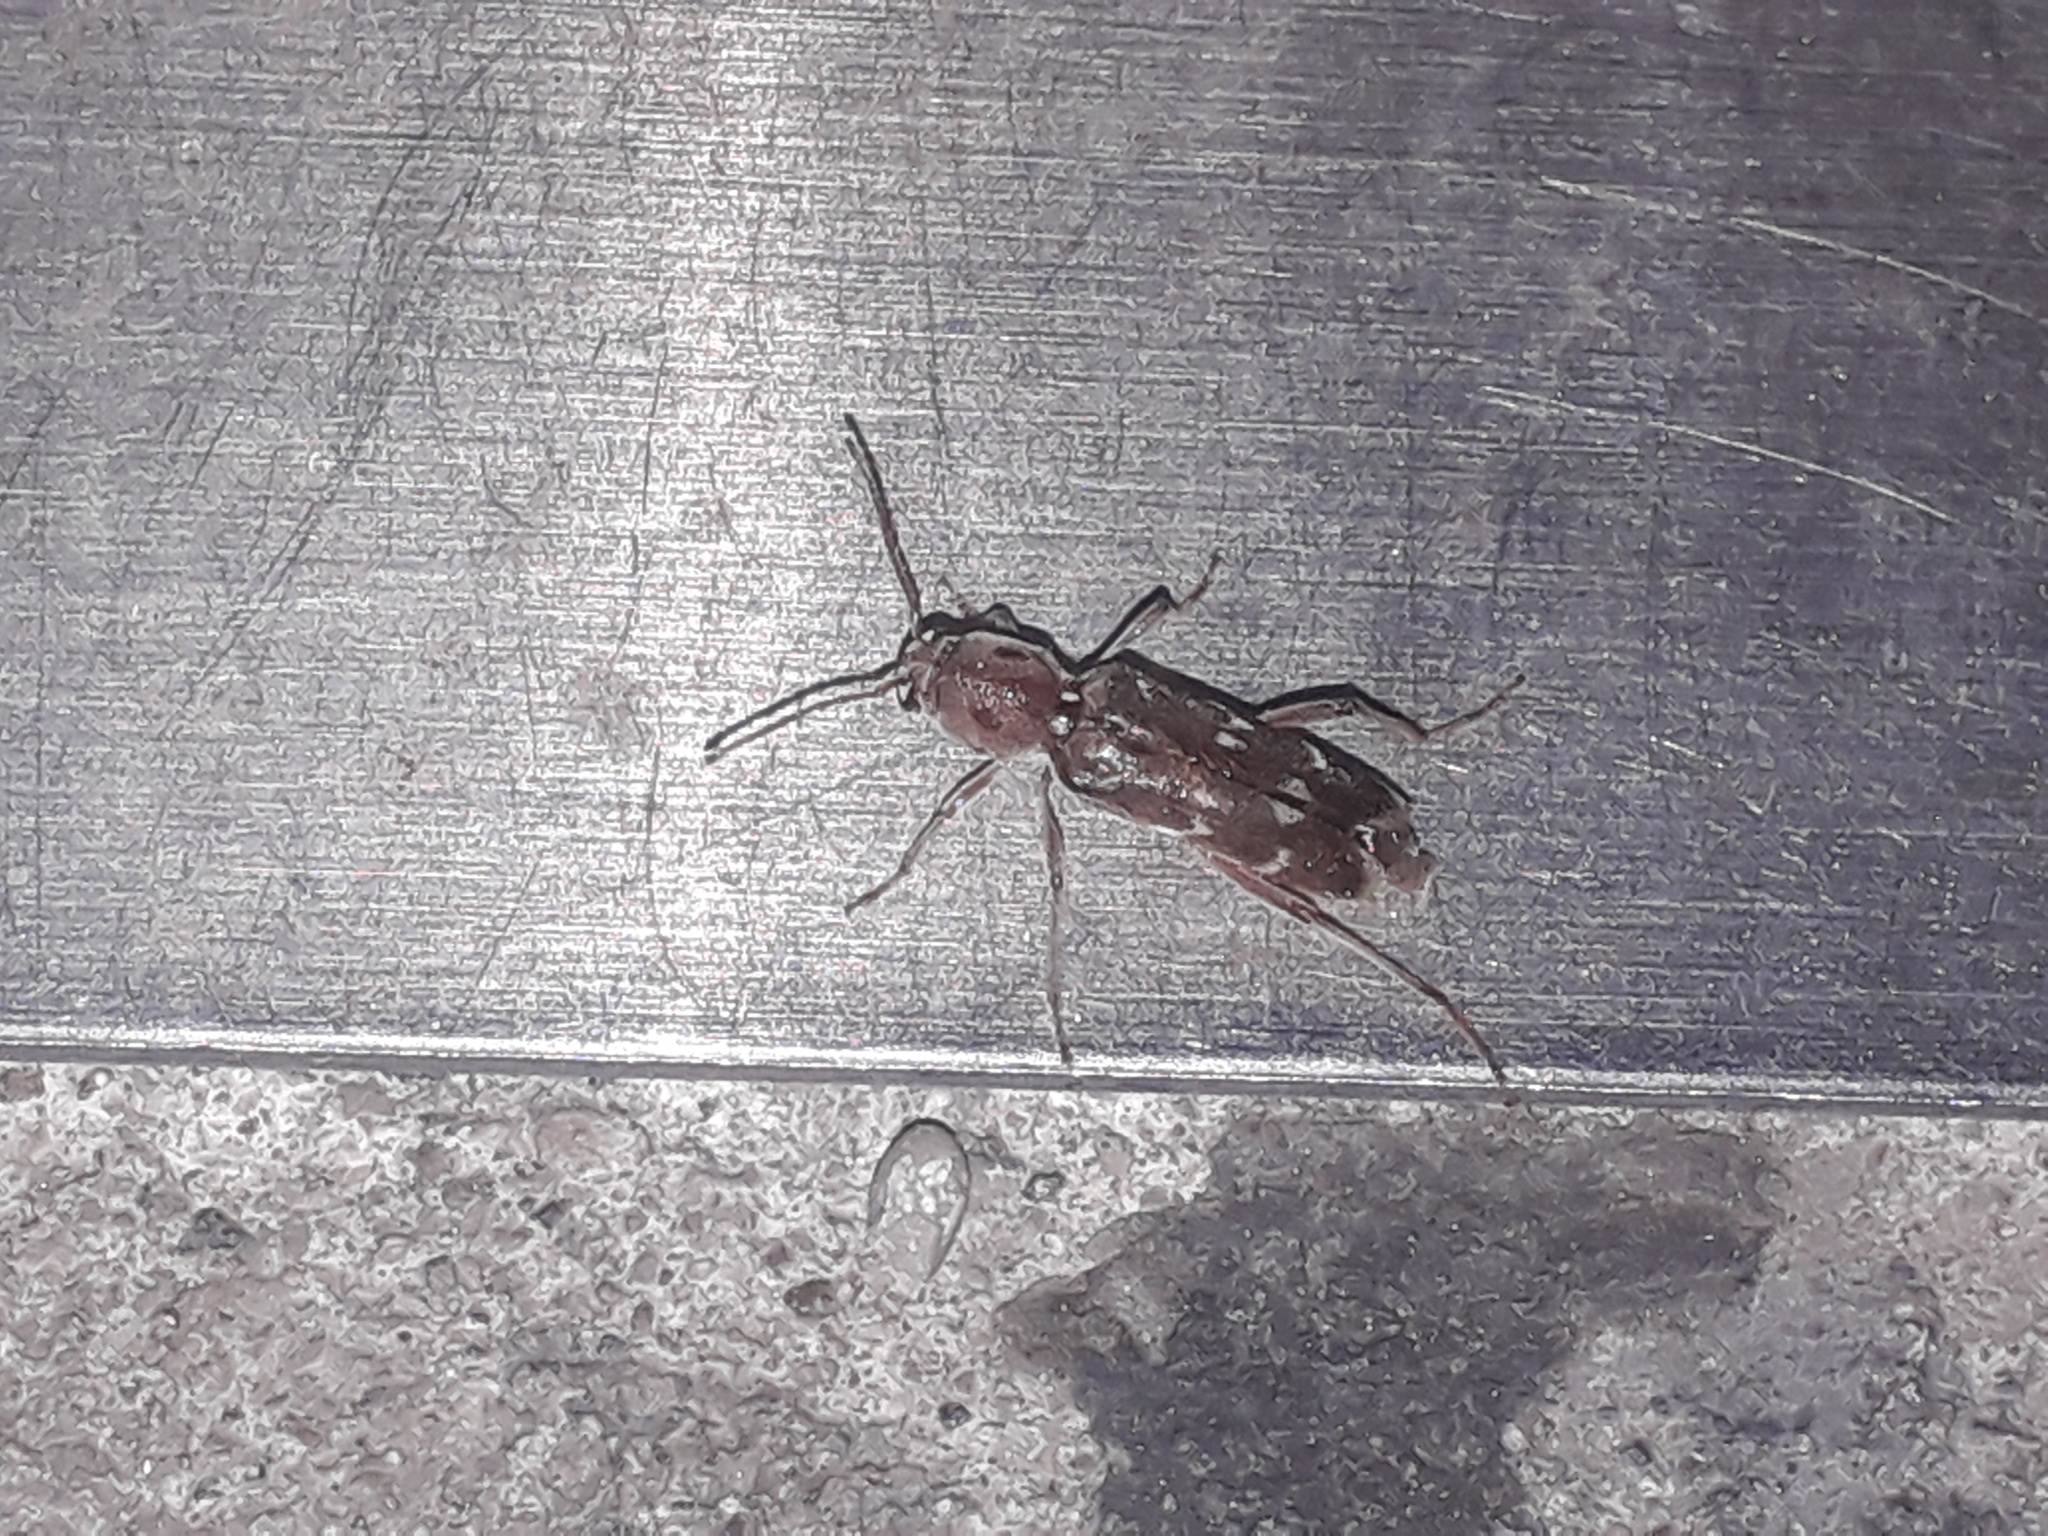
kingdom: Animalia
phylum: Arthropoda
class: Insecta
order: Coleoptera
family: Cerambycidae
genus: Xylotrechus
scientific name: Xylotrechus stebbingi
